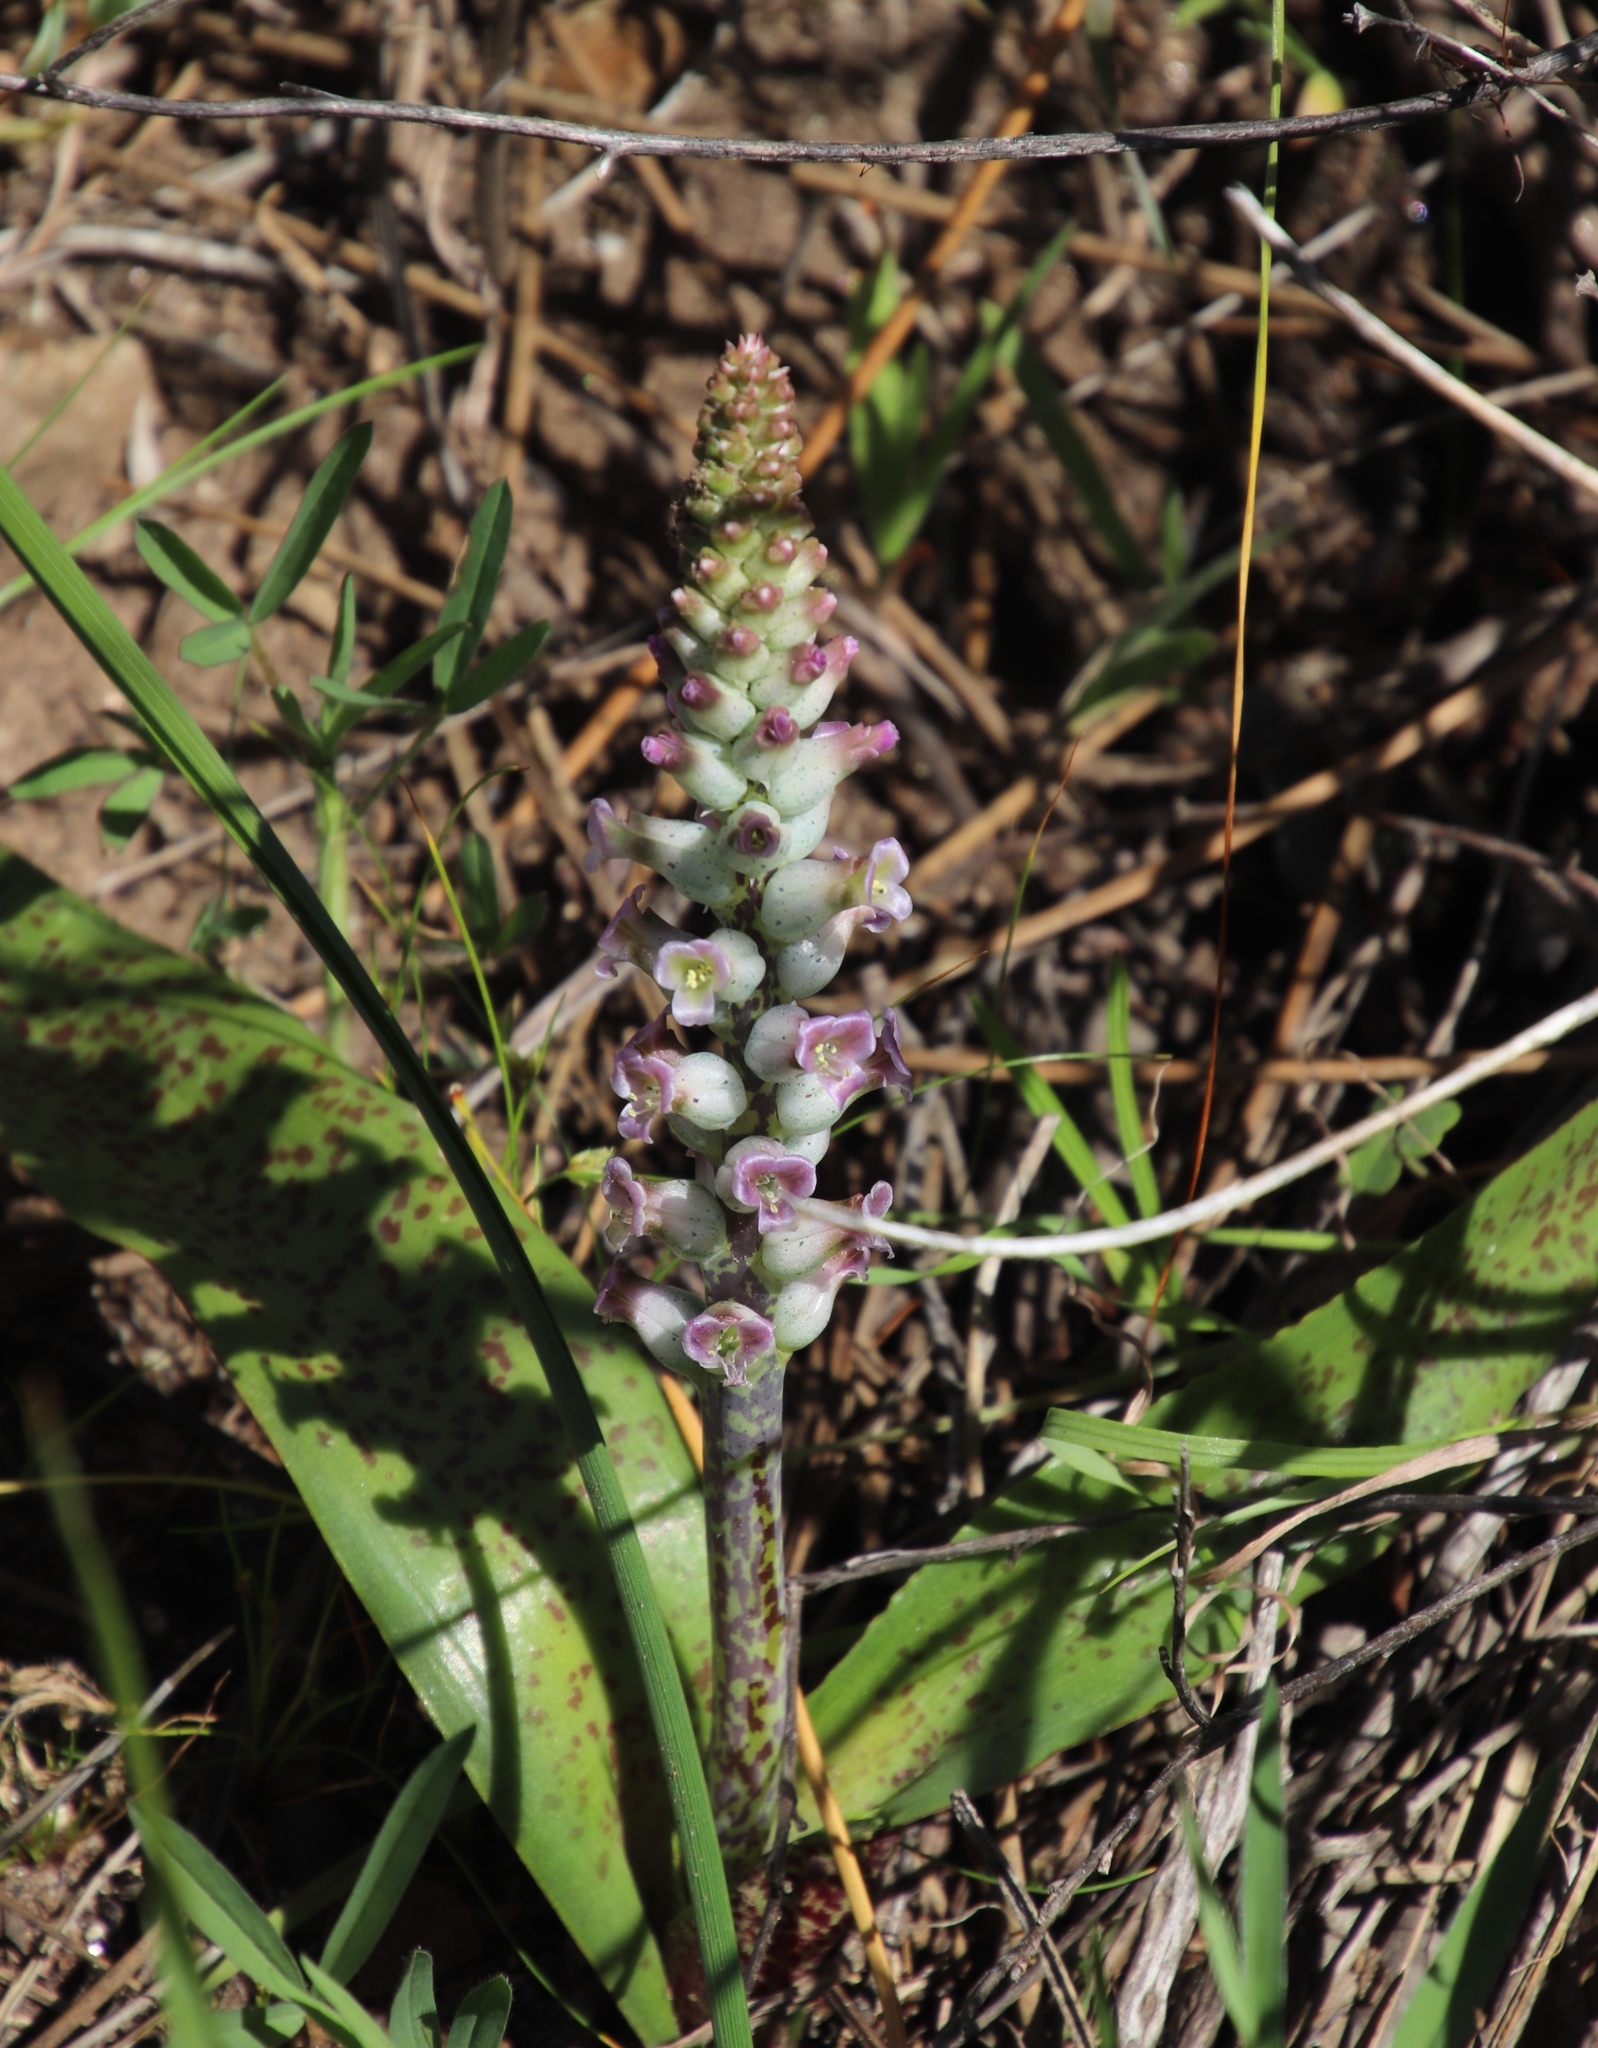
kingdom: Plantae
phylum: Tracheophyta
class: Liliopsida
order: Asparagales
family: Asparagaceae
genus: Lachenalia
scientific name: Lachenalia fistulosa
